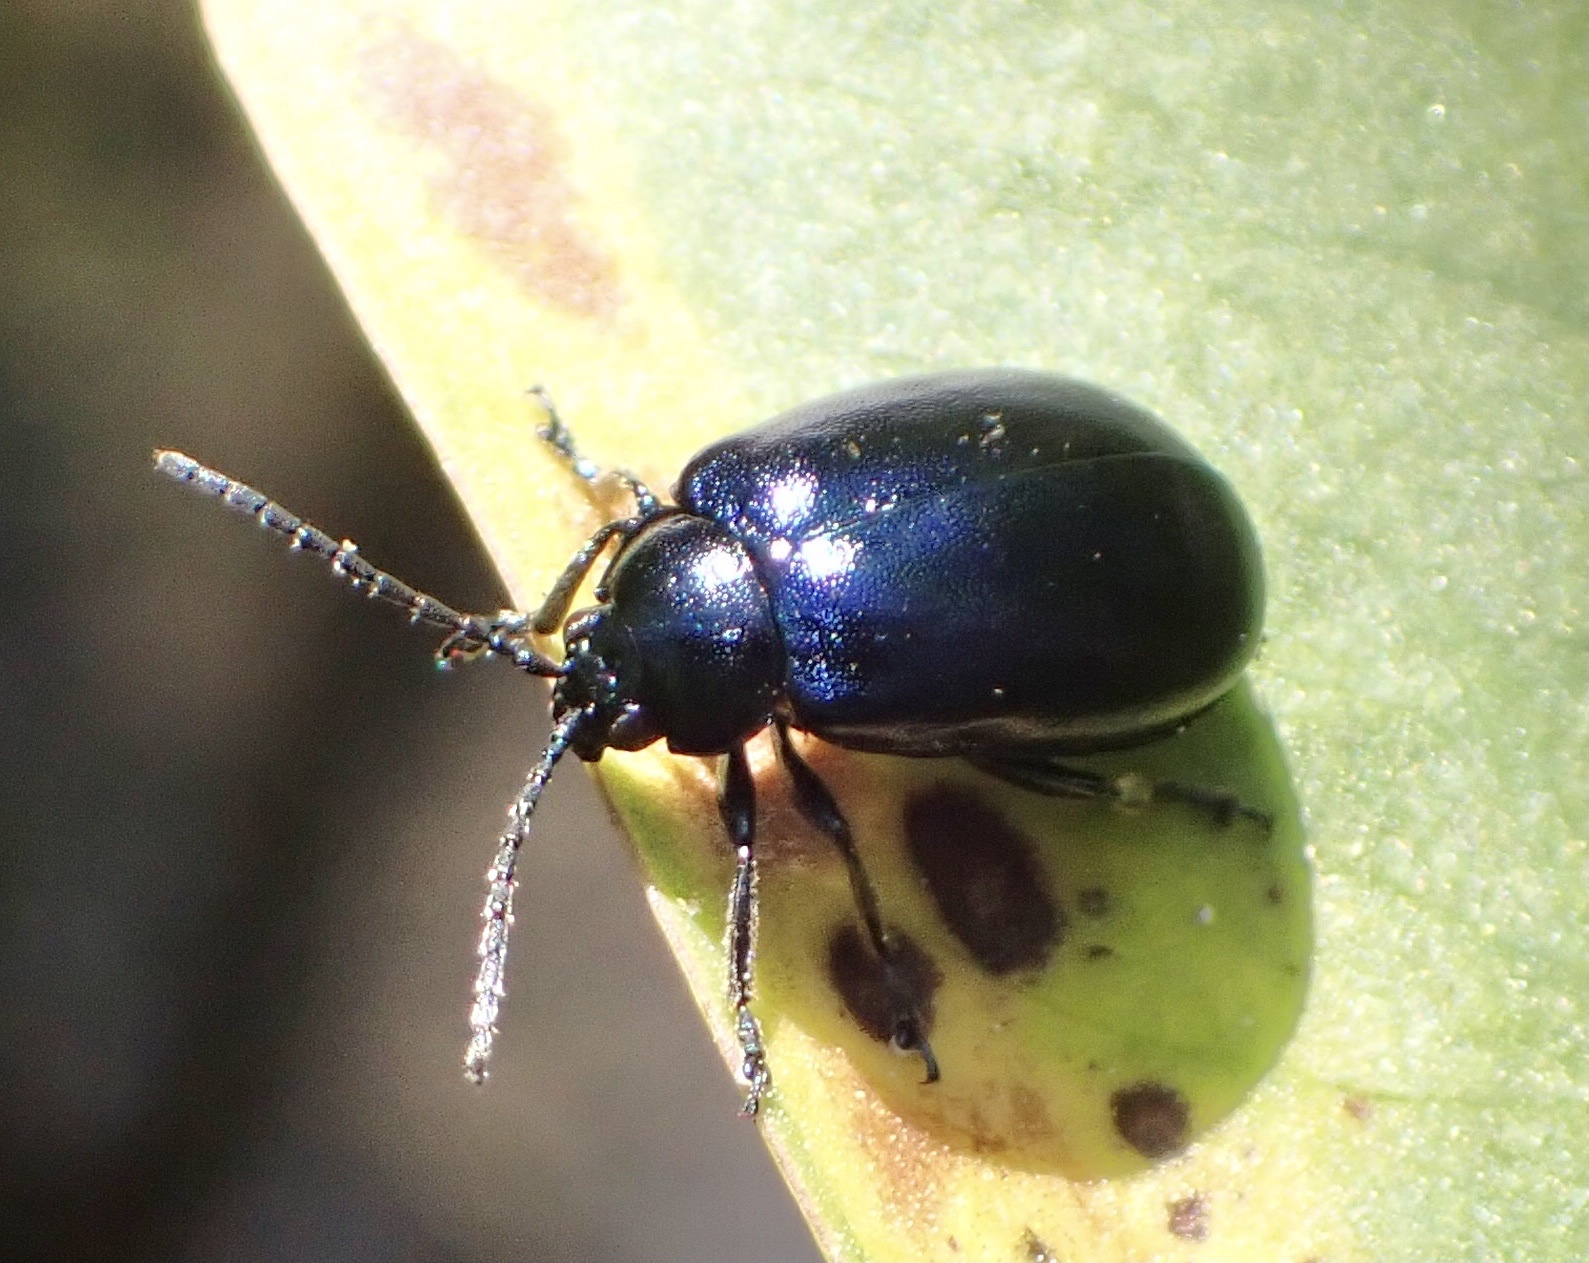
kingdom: Animalia
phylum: Arthropoda
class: Insecta
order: Coleoptera
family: Chrysomelidae
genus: Agelastica
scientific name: Agelastica alni
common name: Alder leaf beetle
